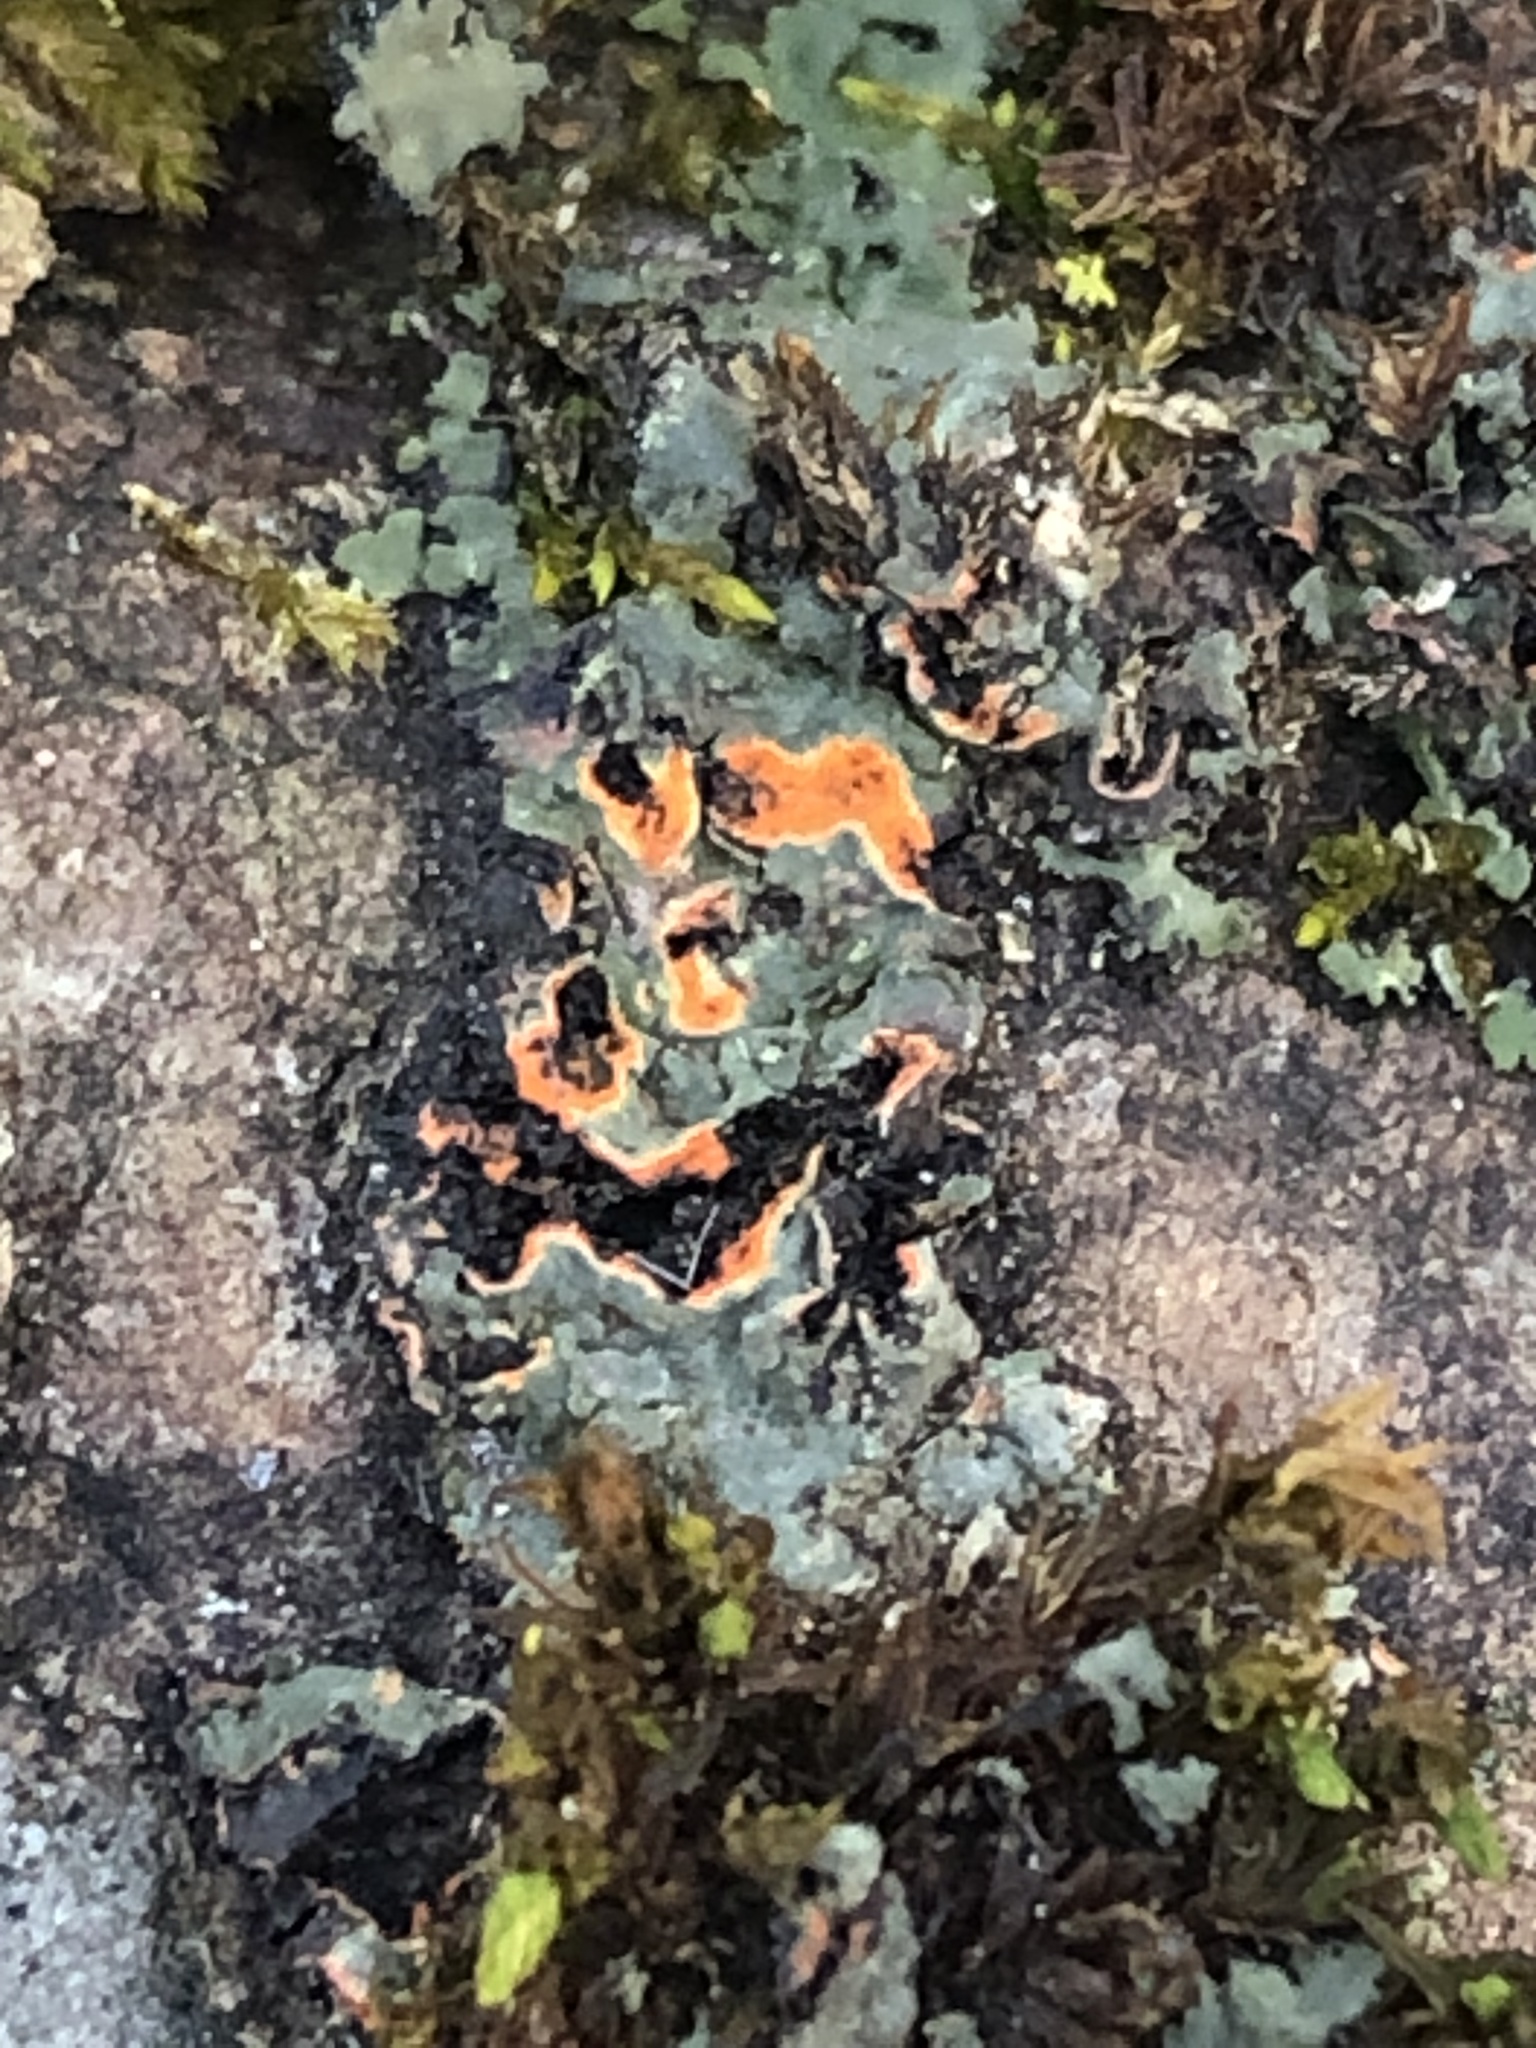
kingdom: Fungi
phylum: Ascomycota
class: Lecanoromycetes
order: Caliciales
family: Physciaceae
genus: Phaeophyscia
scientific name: Phaeophyscia rubropulchra
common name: Orange-cored shadow lichen
